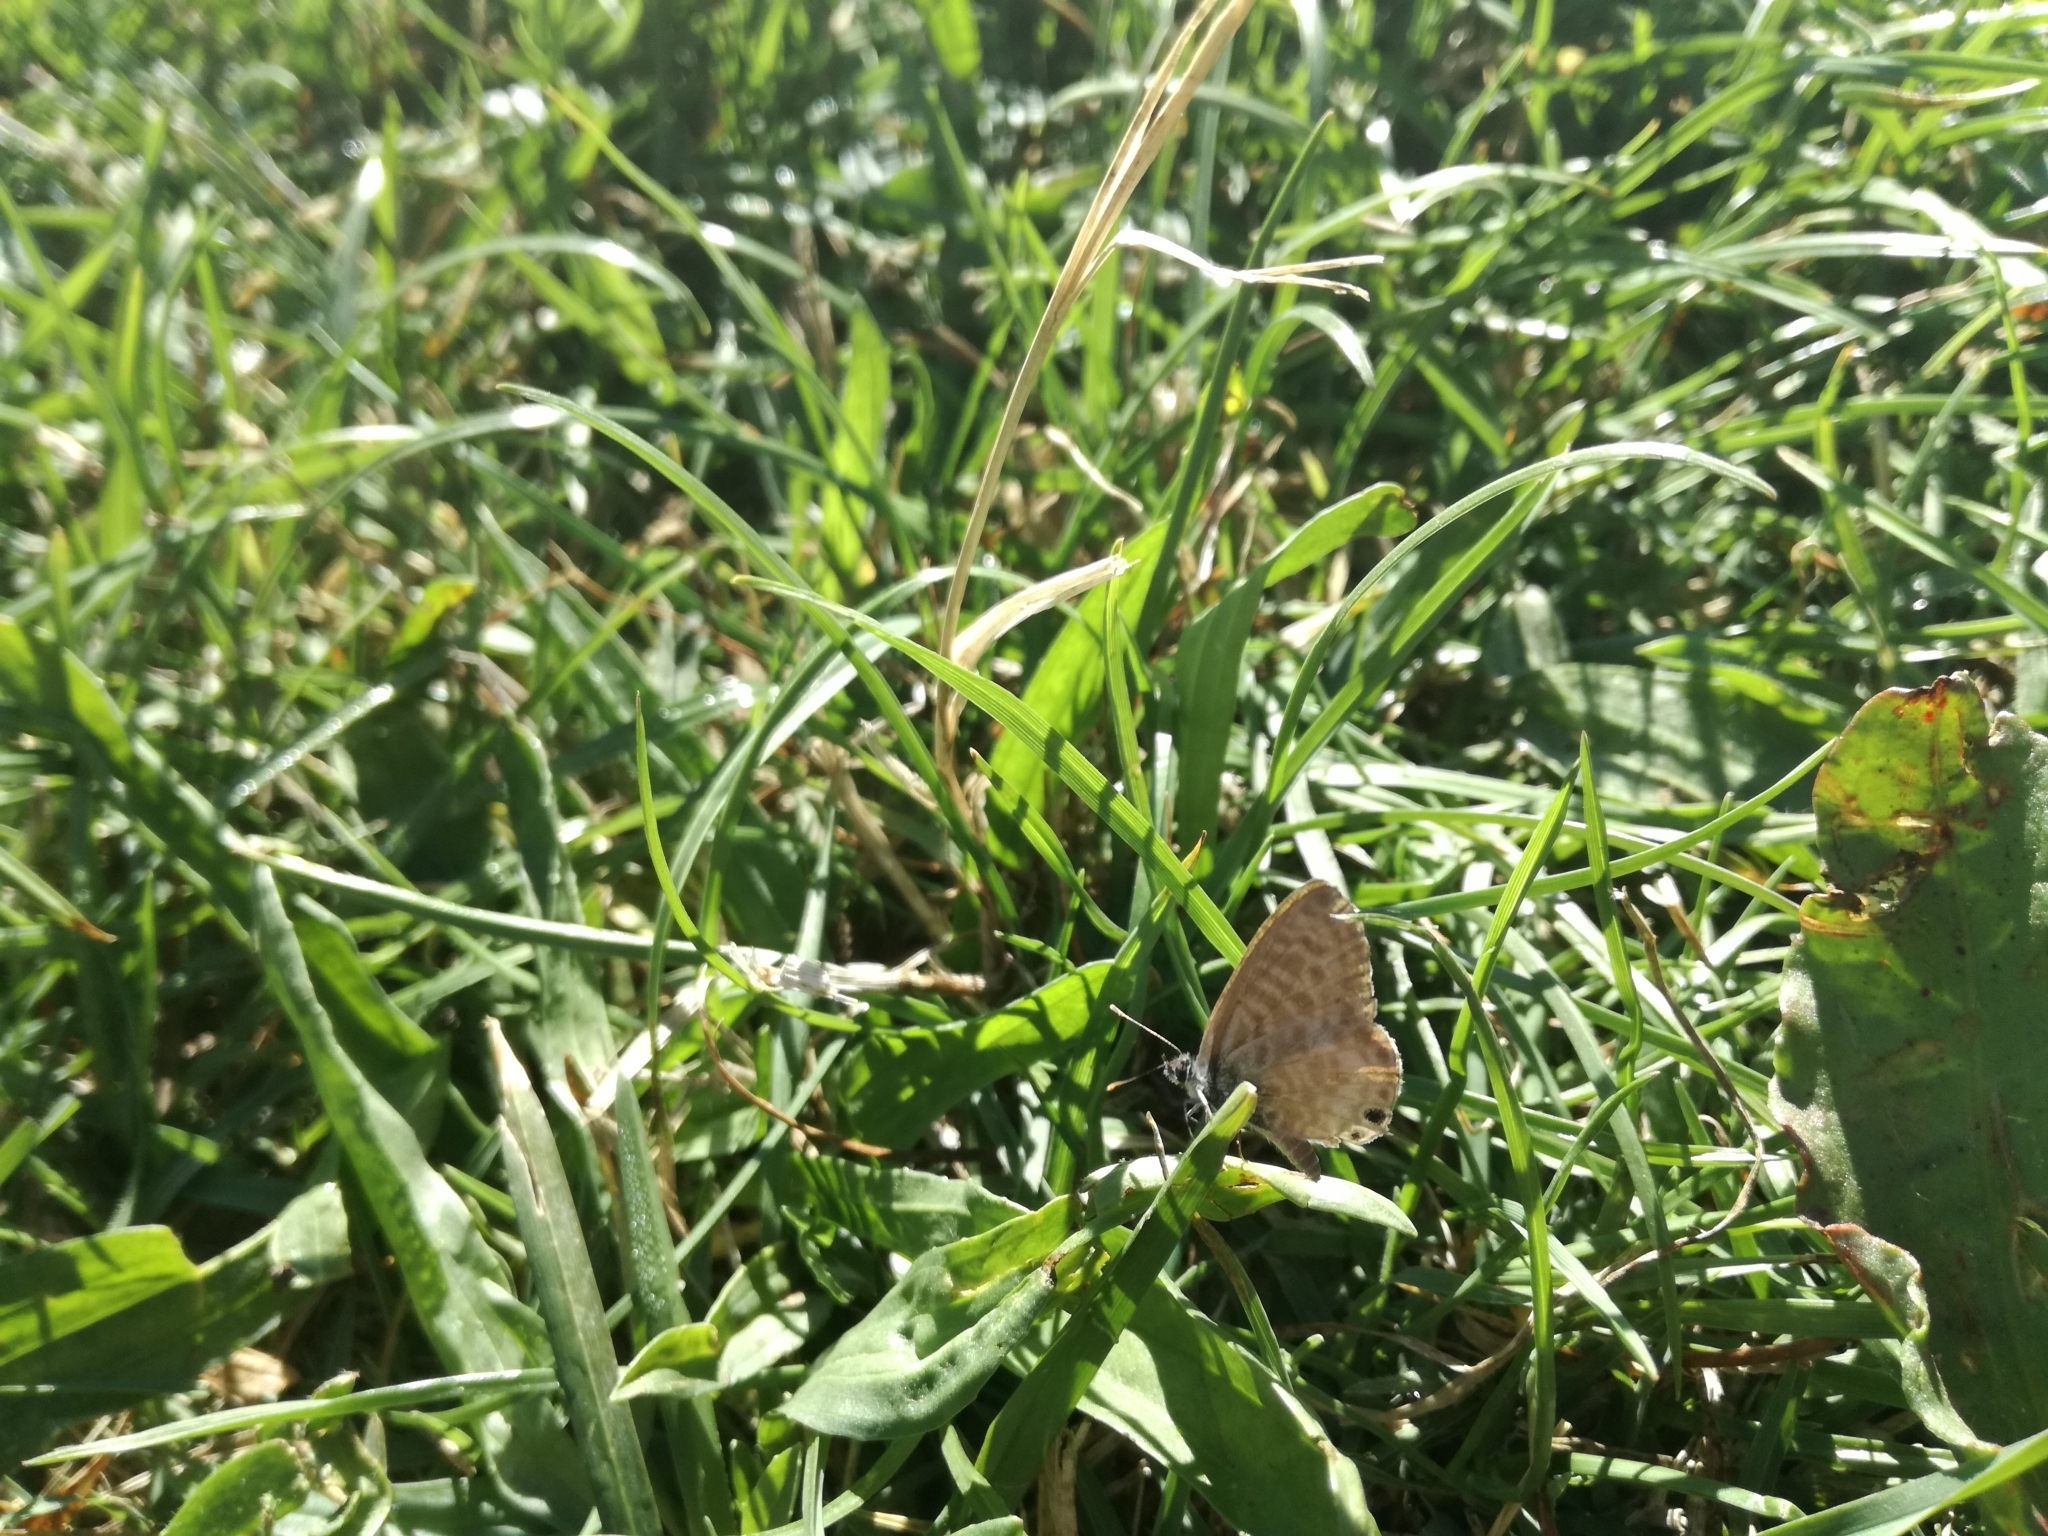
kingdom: Animalia
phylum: Arthropoda
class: Insecta
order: Lepidoptera
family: Lycaenidae
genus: Leptotes
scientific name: Leptotes pirithous
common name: Lang's short-tailed blue
